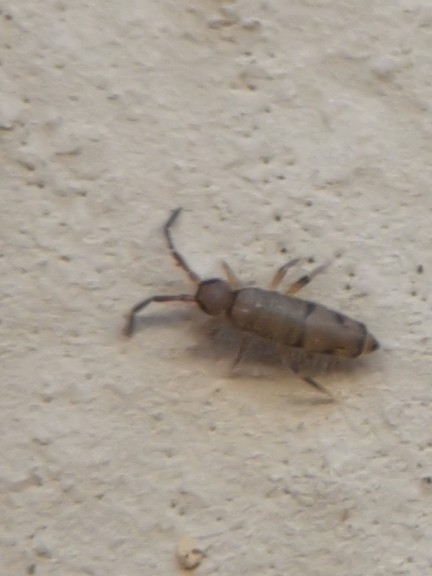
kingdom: Animalia
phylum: Arthropoda
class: Collembola
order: Entomobryomorpha
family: Entomobryidae
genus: Willowsia
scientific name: Willowsia nigromaculata
